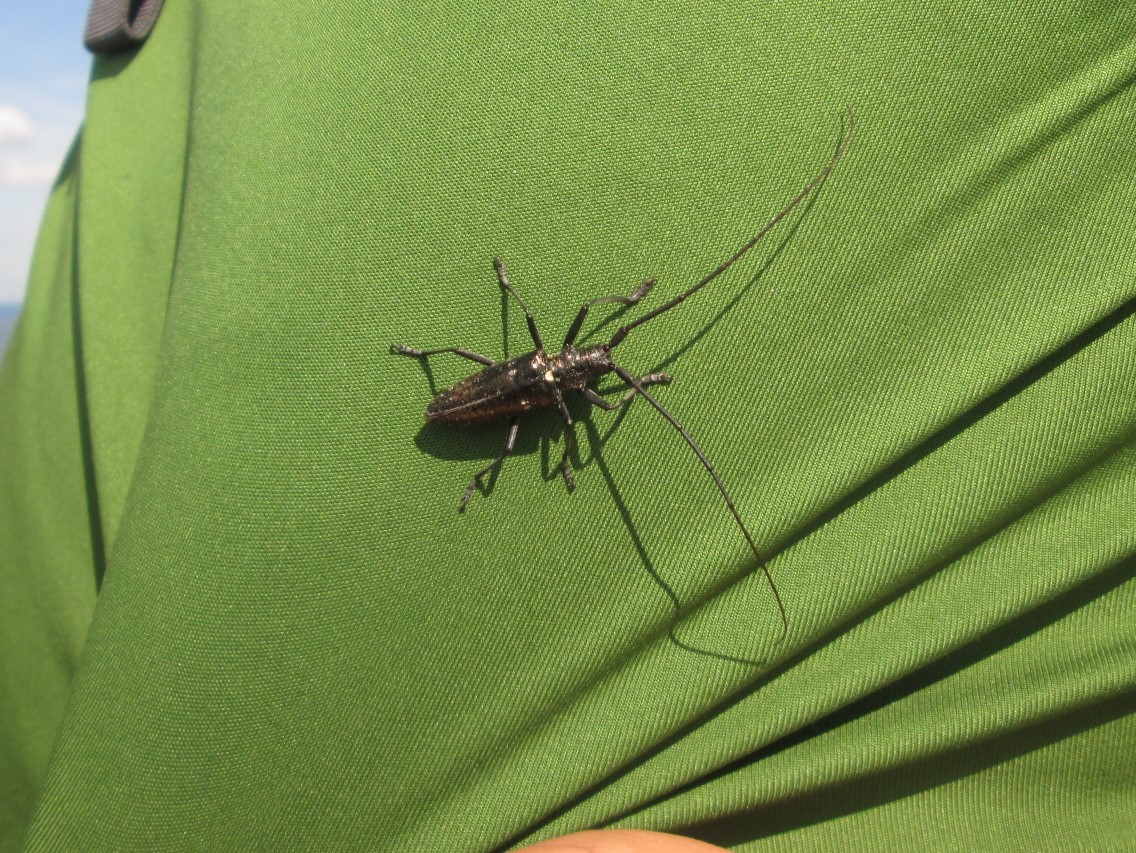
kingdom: Animalia
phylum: Arthropoda
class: Insecta
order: Coleoptera
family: Cerambycidae
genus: Monochamus
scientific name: Monochamus scutellatus
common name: White-spotted sawyer beetle
